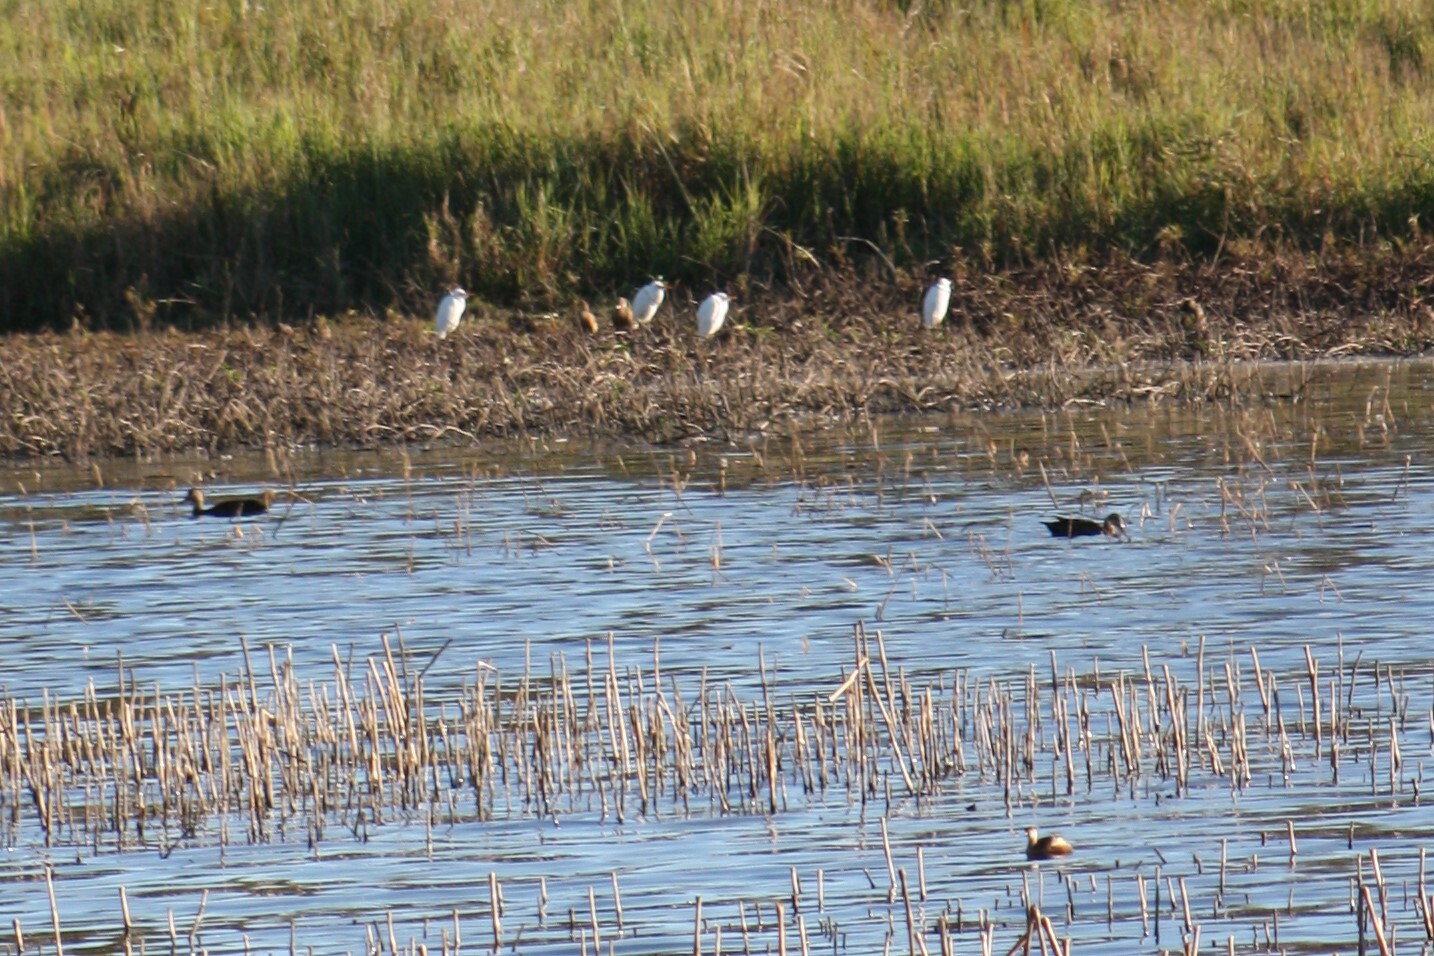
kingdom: Animalia
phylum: Chordata
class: Aves
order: Anseriformes
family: Anatidae
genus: Anas
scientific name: Anas superciliosa
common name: Pacific black duck
